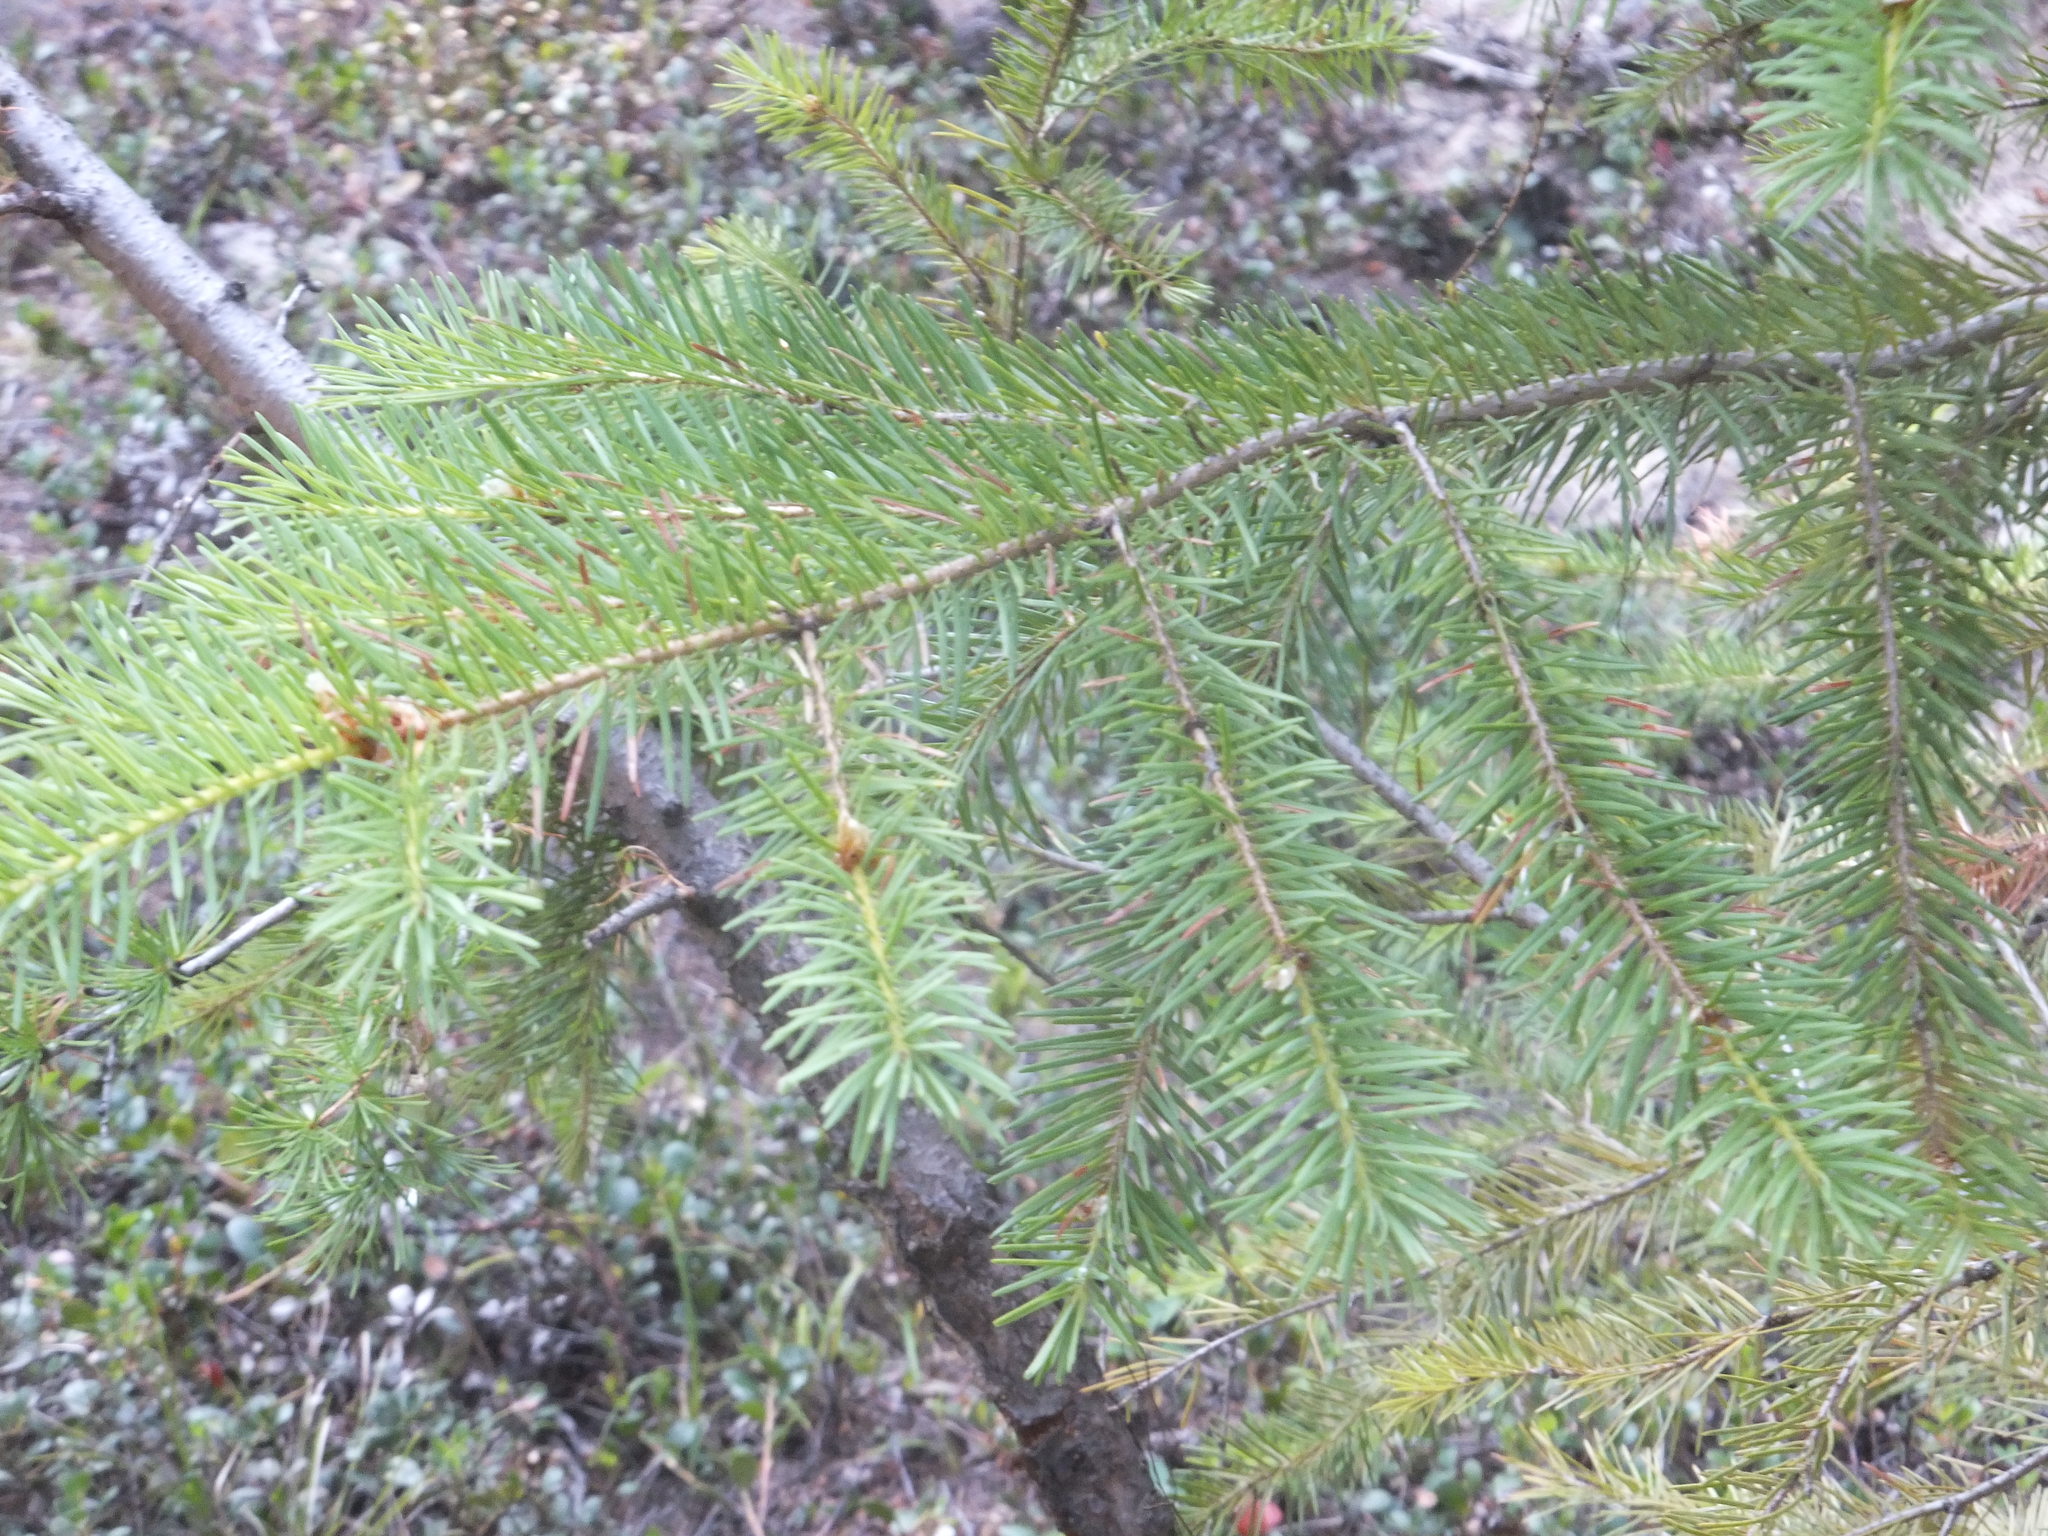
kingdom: Plantae
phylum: Tracheophyta
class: Pinopsida
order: Pinales
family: Pinaceae
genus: Pseudotsuga
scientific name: Pseudotsuga menziesii
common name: Douglas fir
